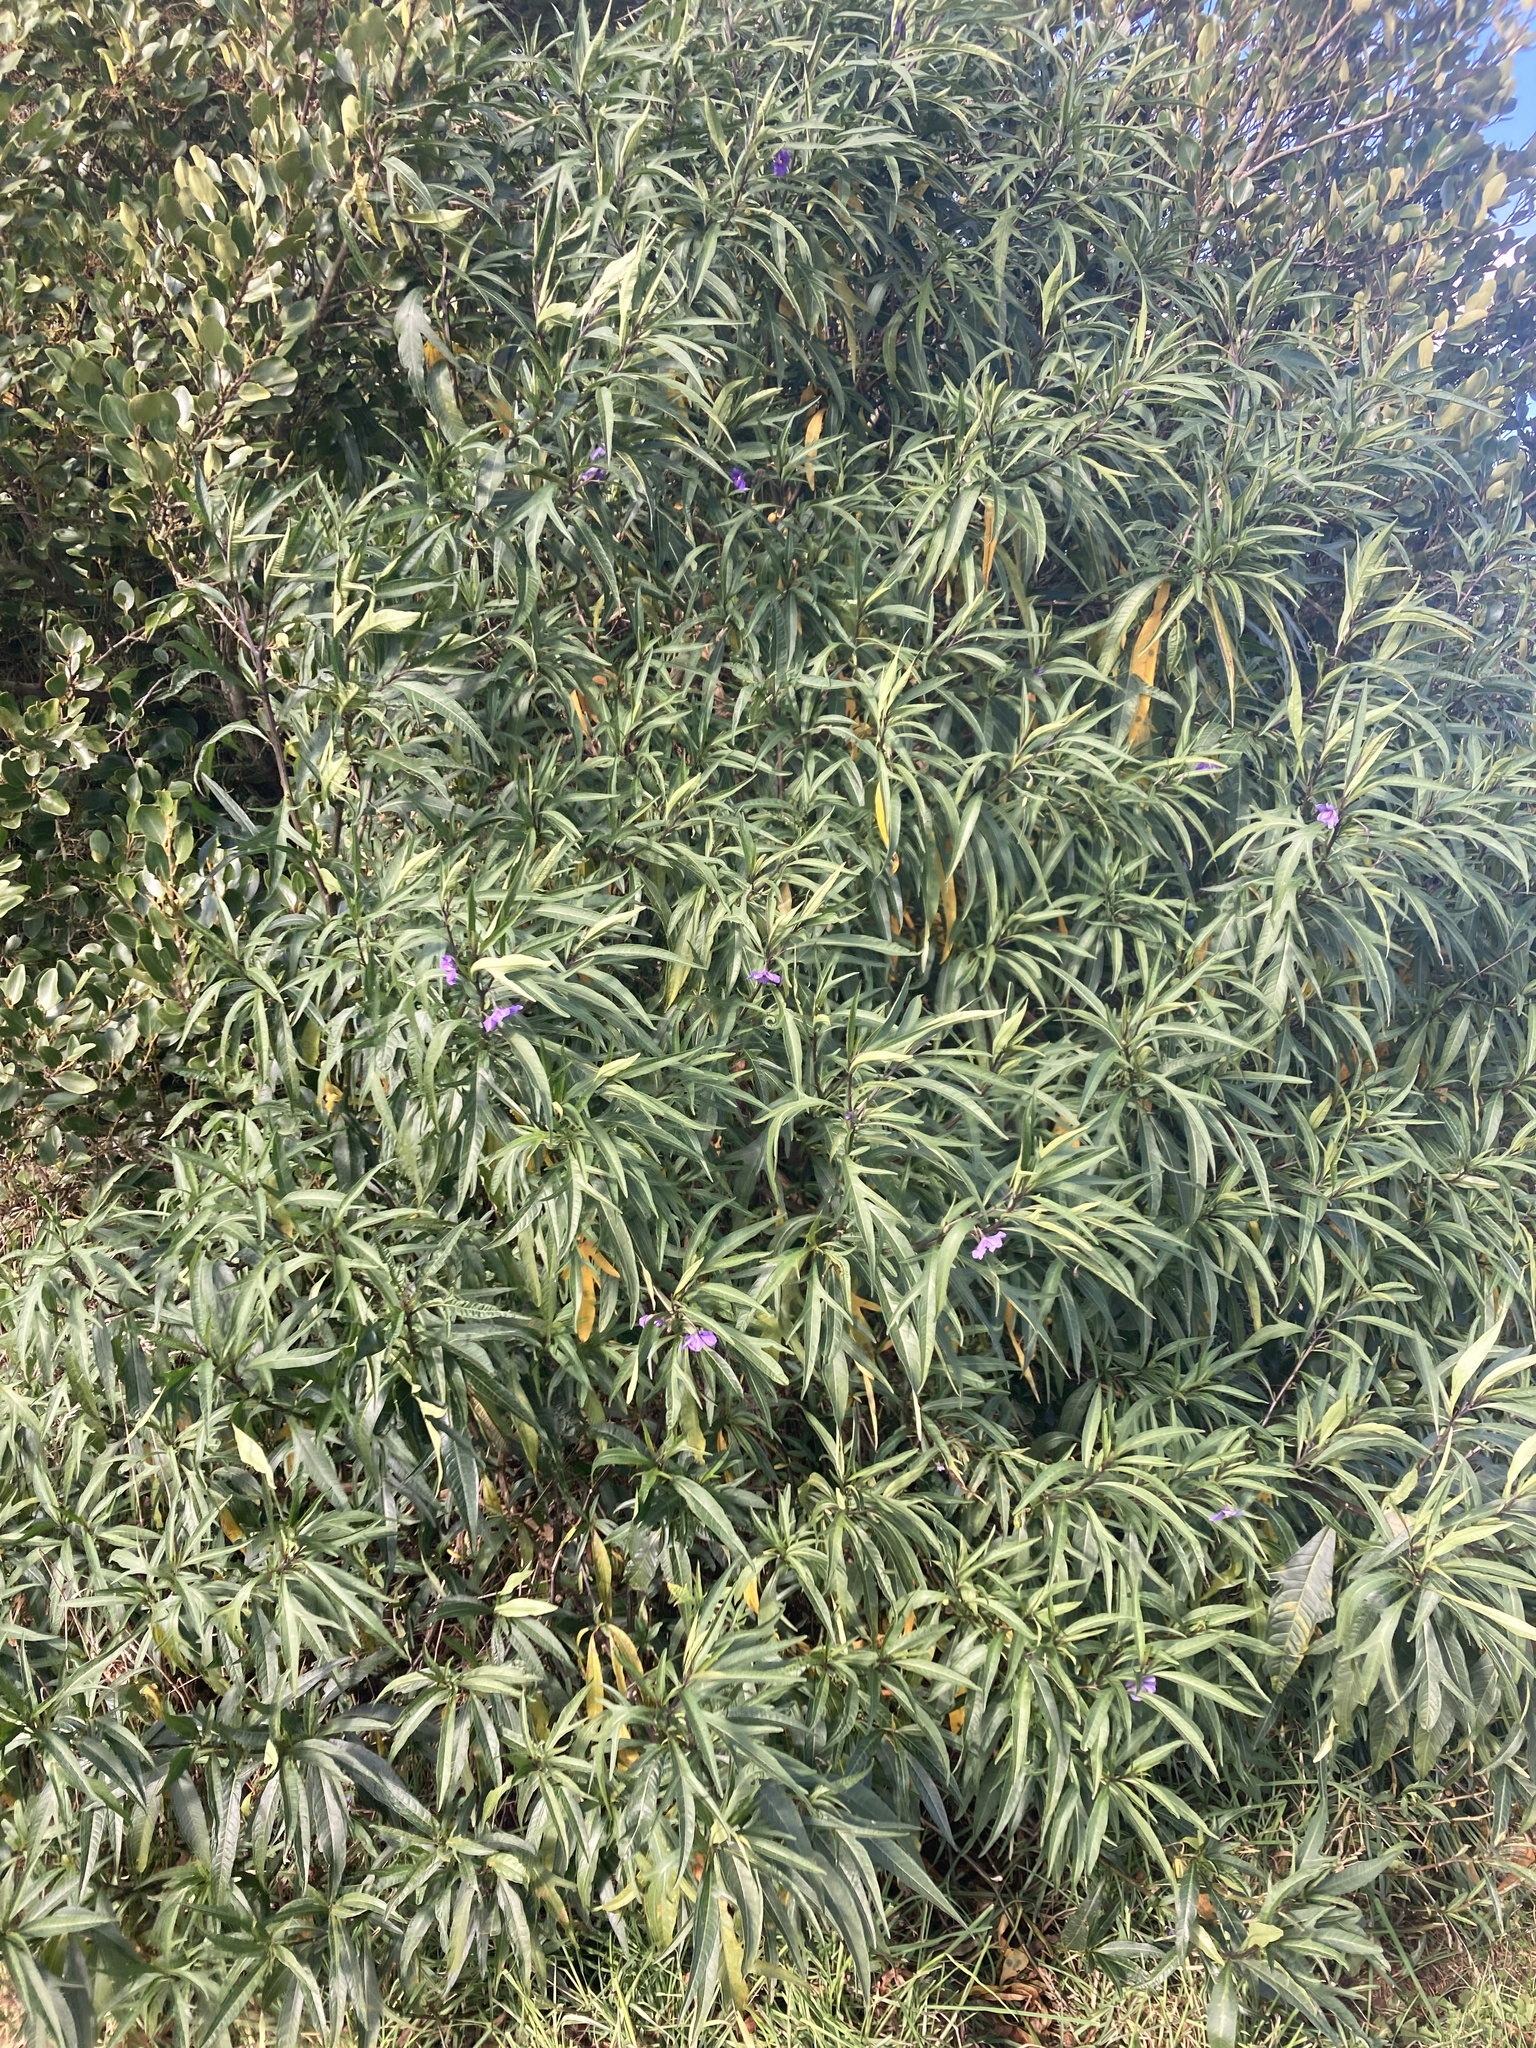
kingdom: Plantae
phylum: Tracheophyta
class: Magnoliopsida
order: Solanales
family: Solanaceae
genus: Solanum
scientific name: Solanum laciniatum
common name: Kangaroo-apple
